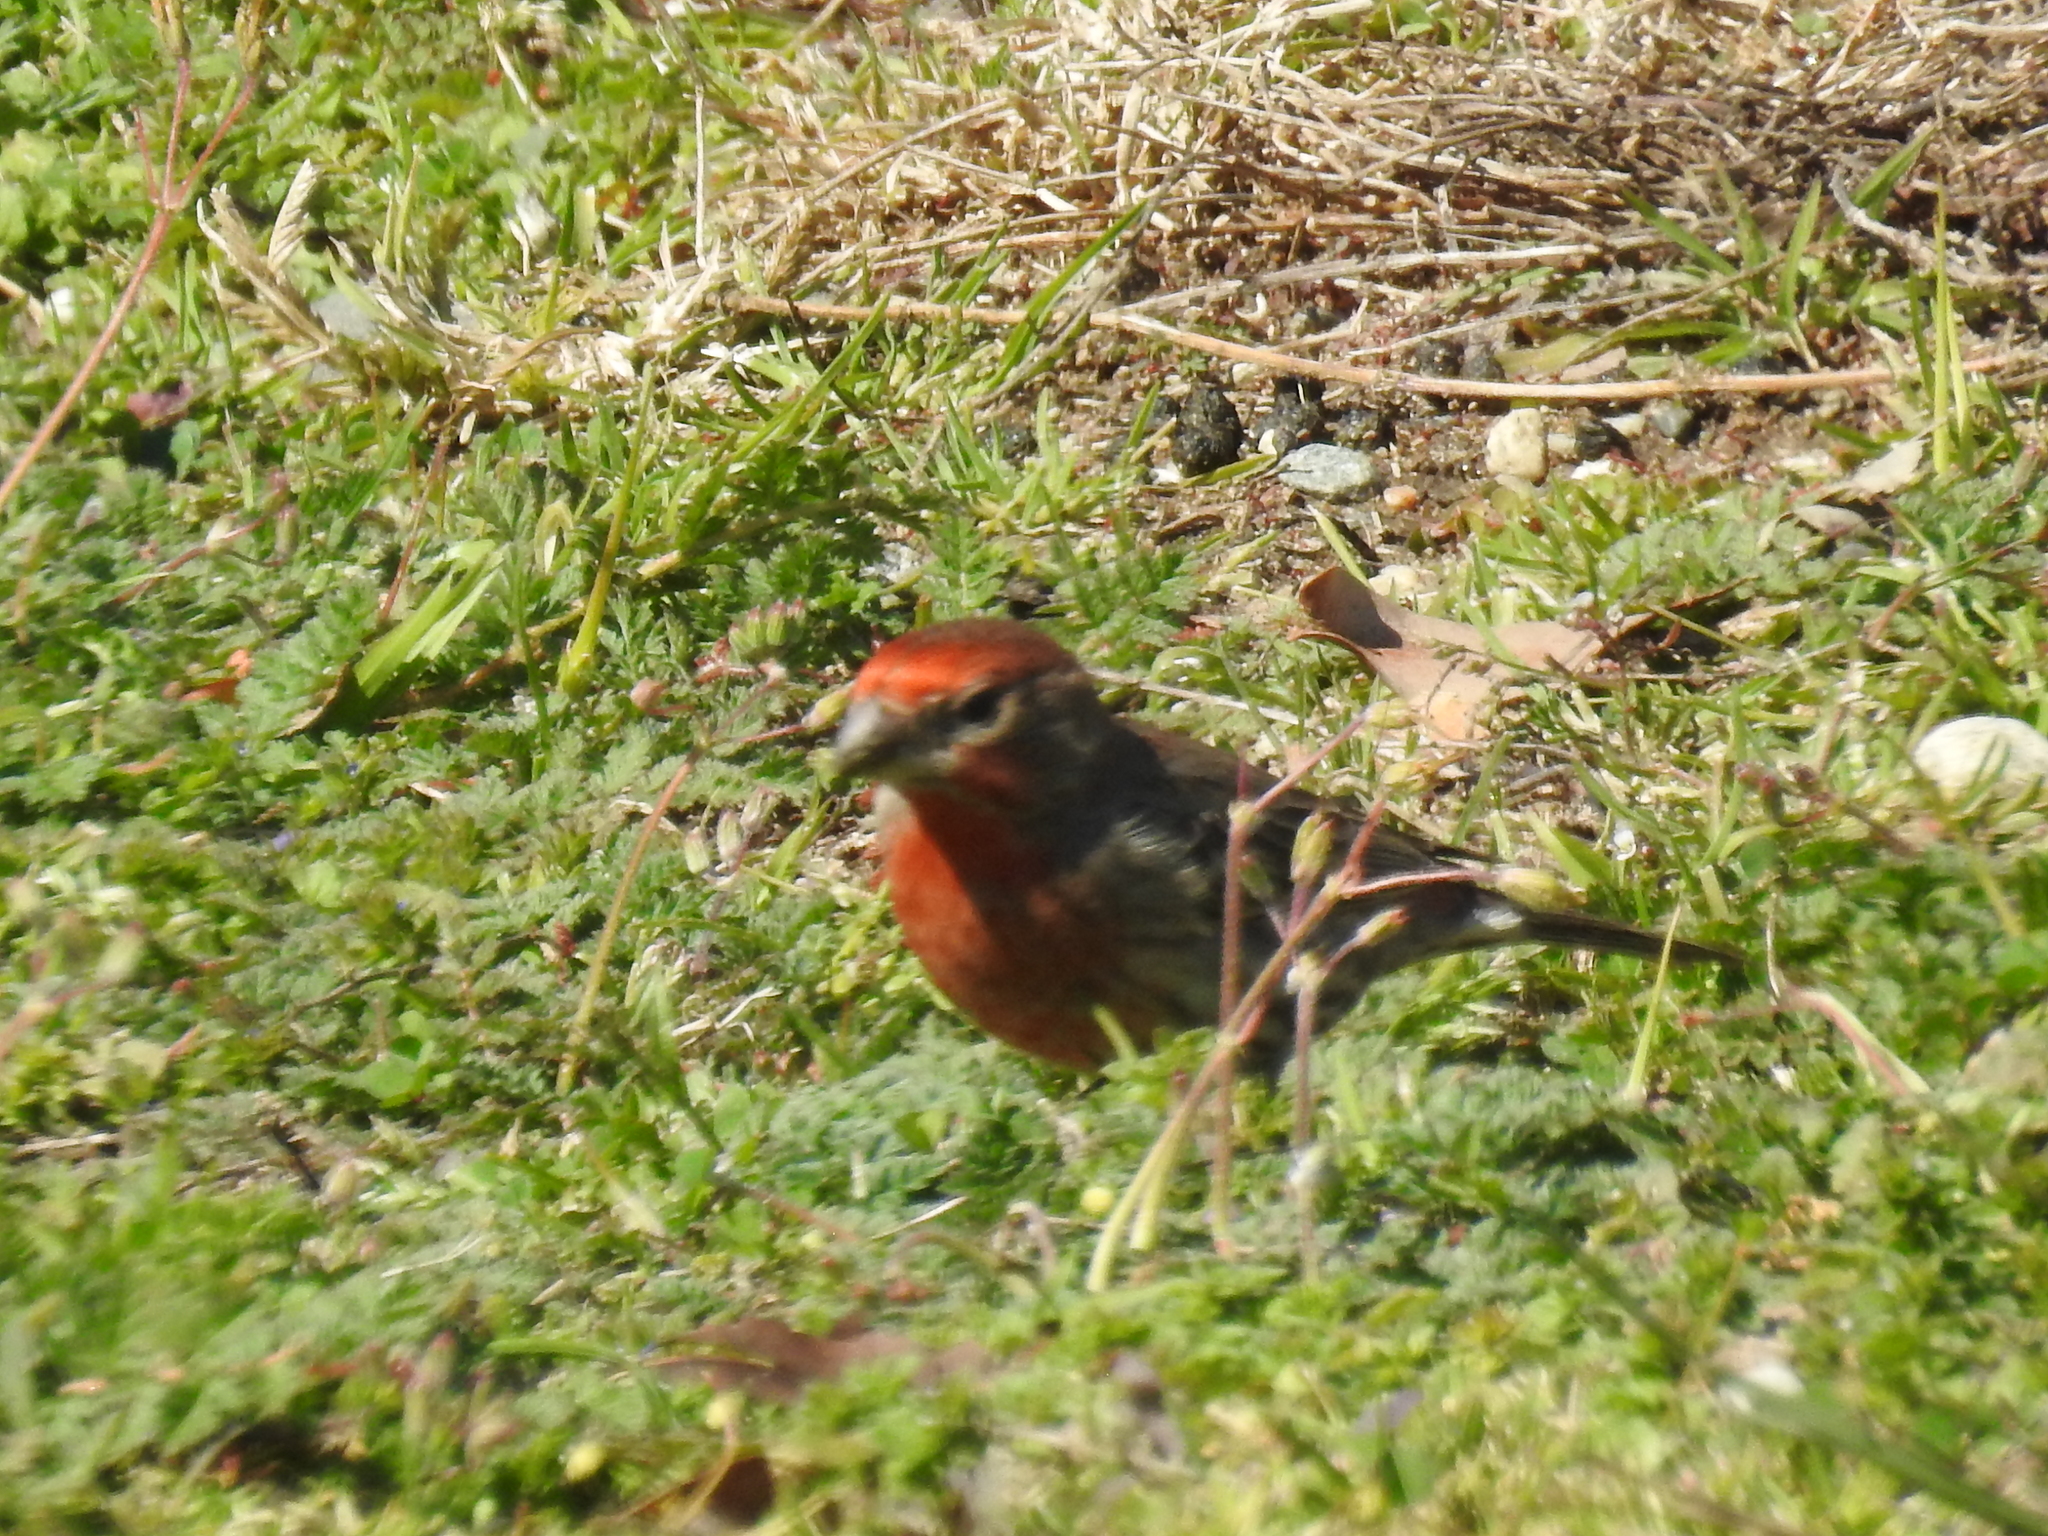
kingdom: Animalia
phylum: Chordata
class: Aves
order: Passeriformes
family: Fringillidae
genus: Haemorhous
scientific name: Haemorhous mexicanus
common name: House finch
